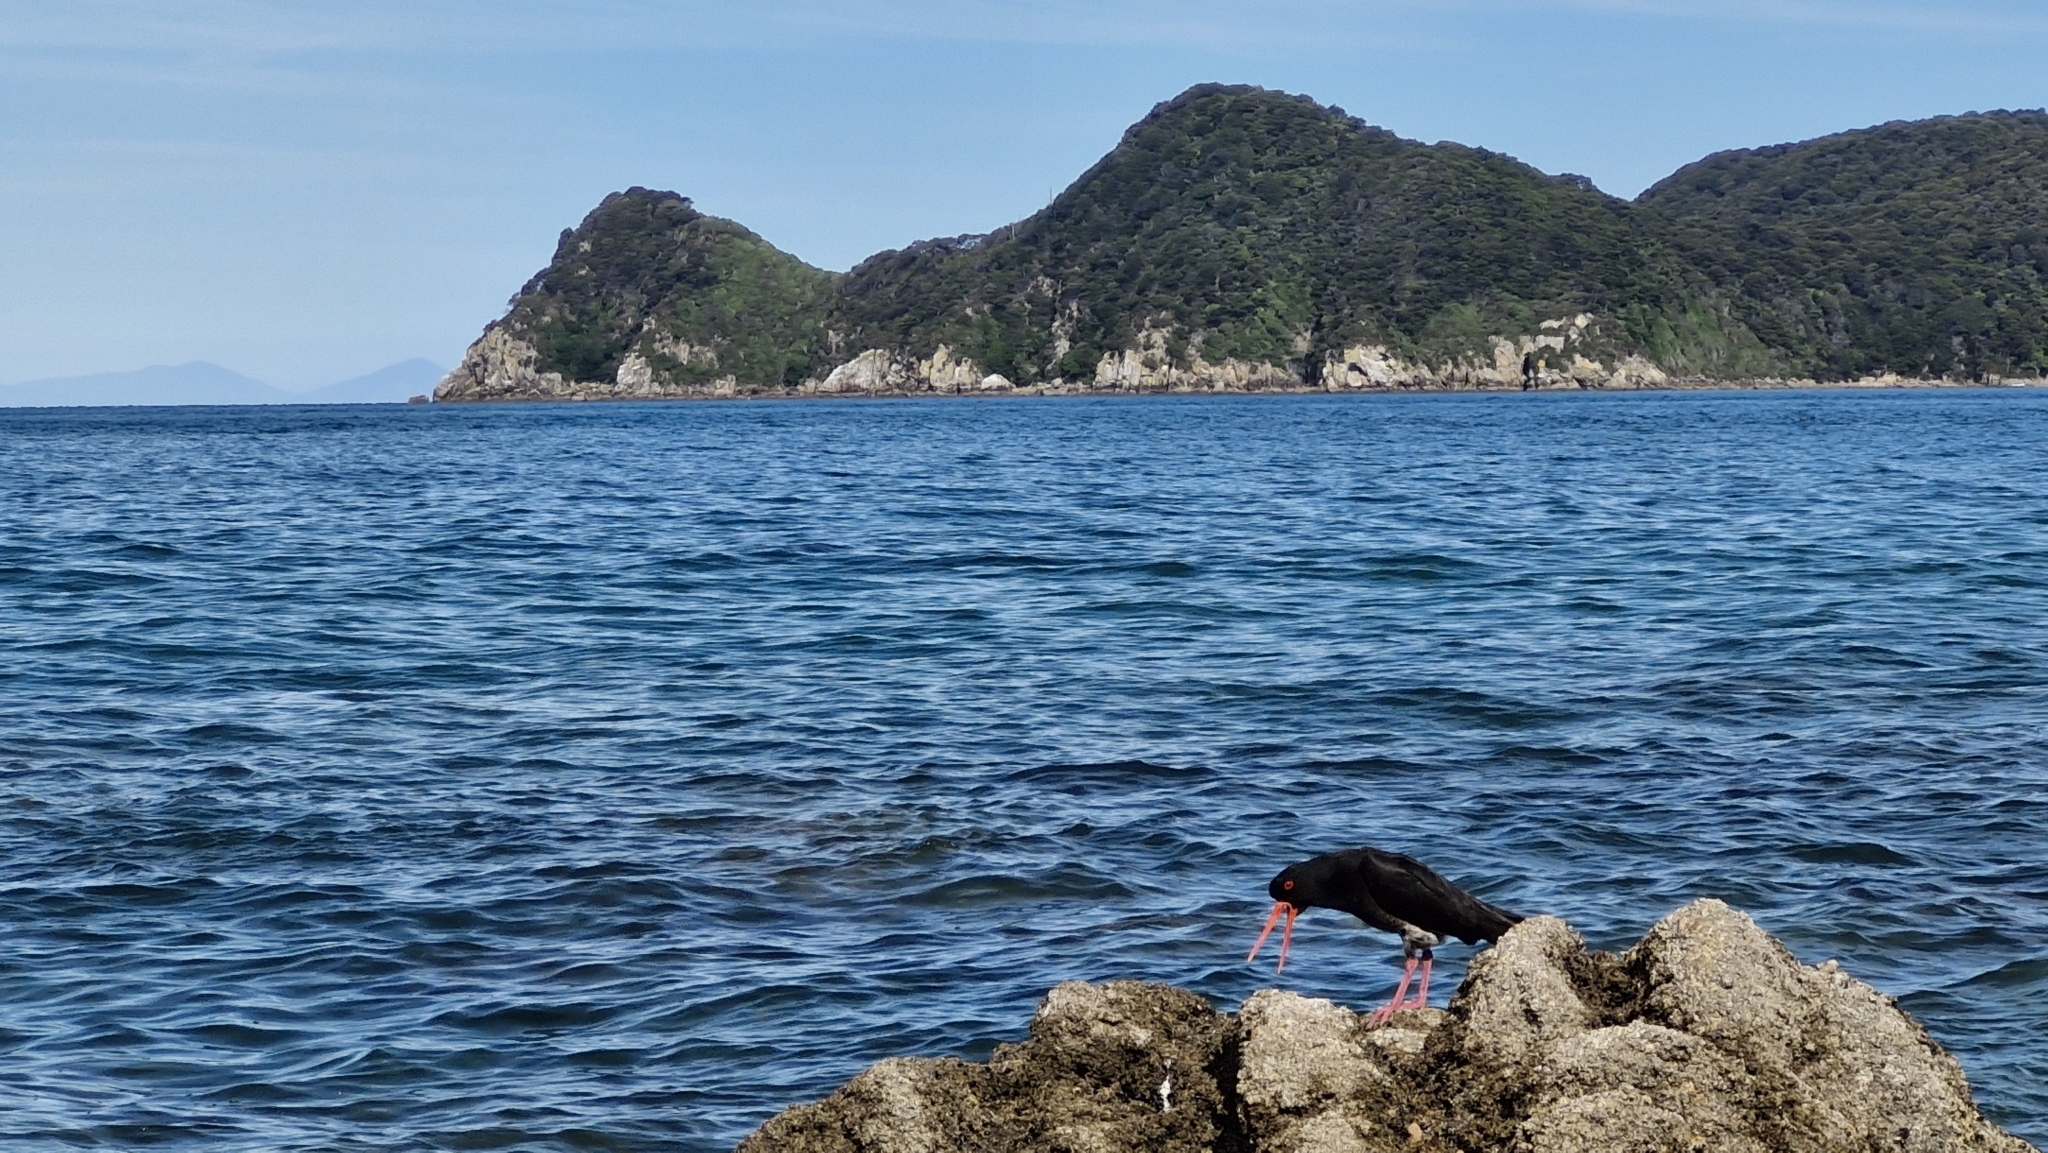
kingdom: Animalia
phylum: Chordata
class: Aves
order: Charadriiformes
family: Haematopodidae
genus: Haematopus
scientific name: Haematopus unicolor
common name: Variable oystercatcher
